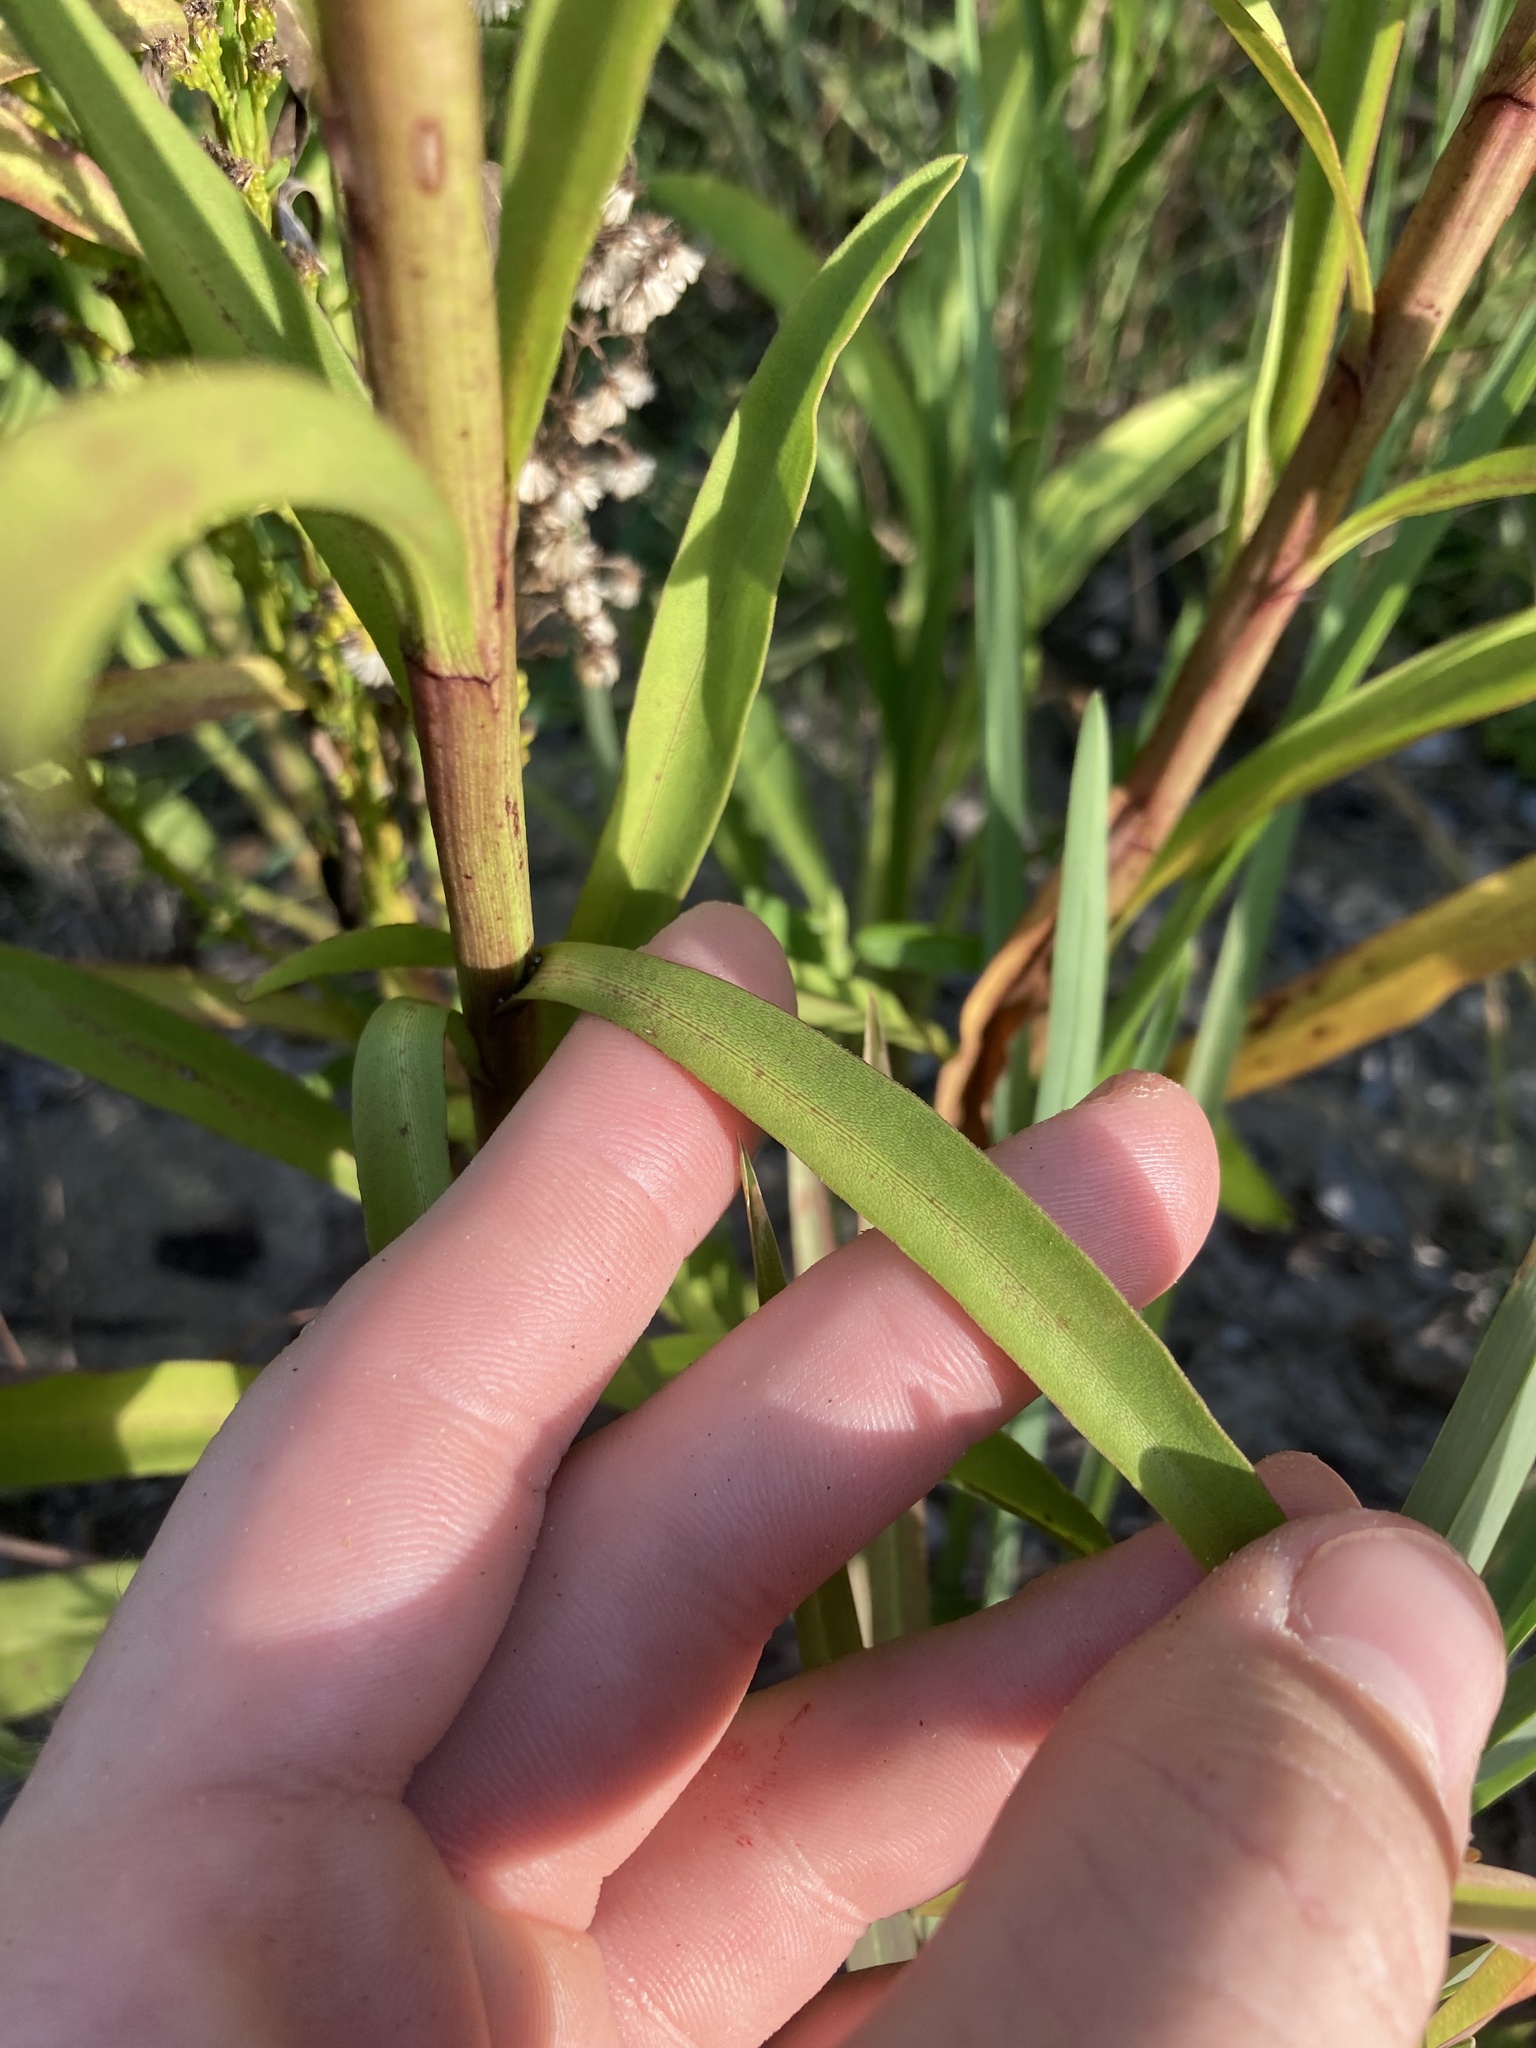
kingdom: Plantae
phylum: Tracheophyta
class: Magnoliopsida
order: Asterales
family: Asteraceae
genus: Solidago
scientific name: Solidago virgata
